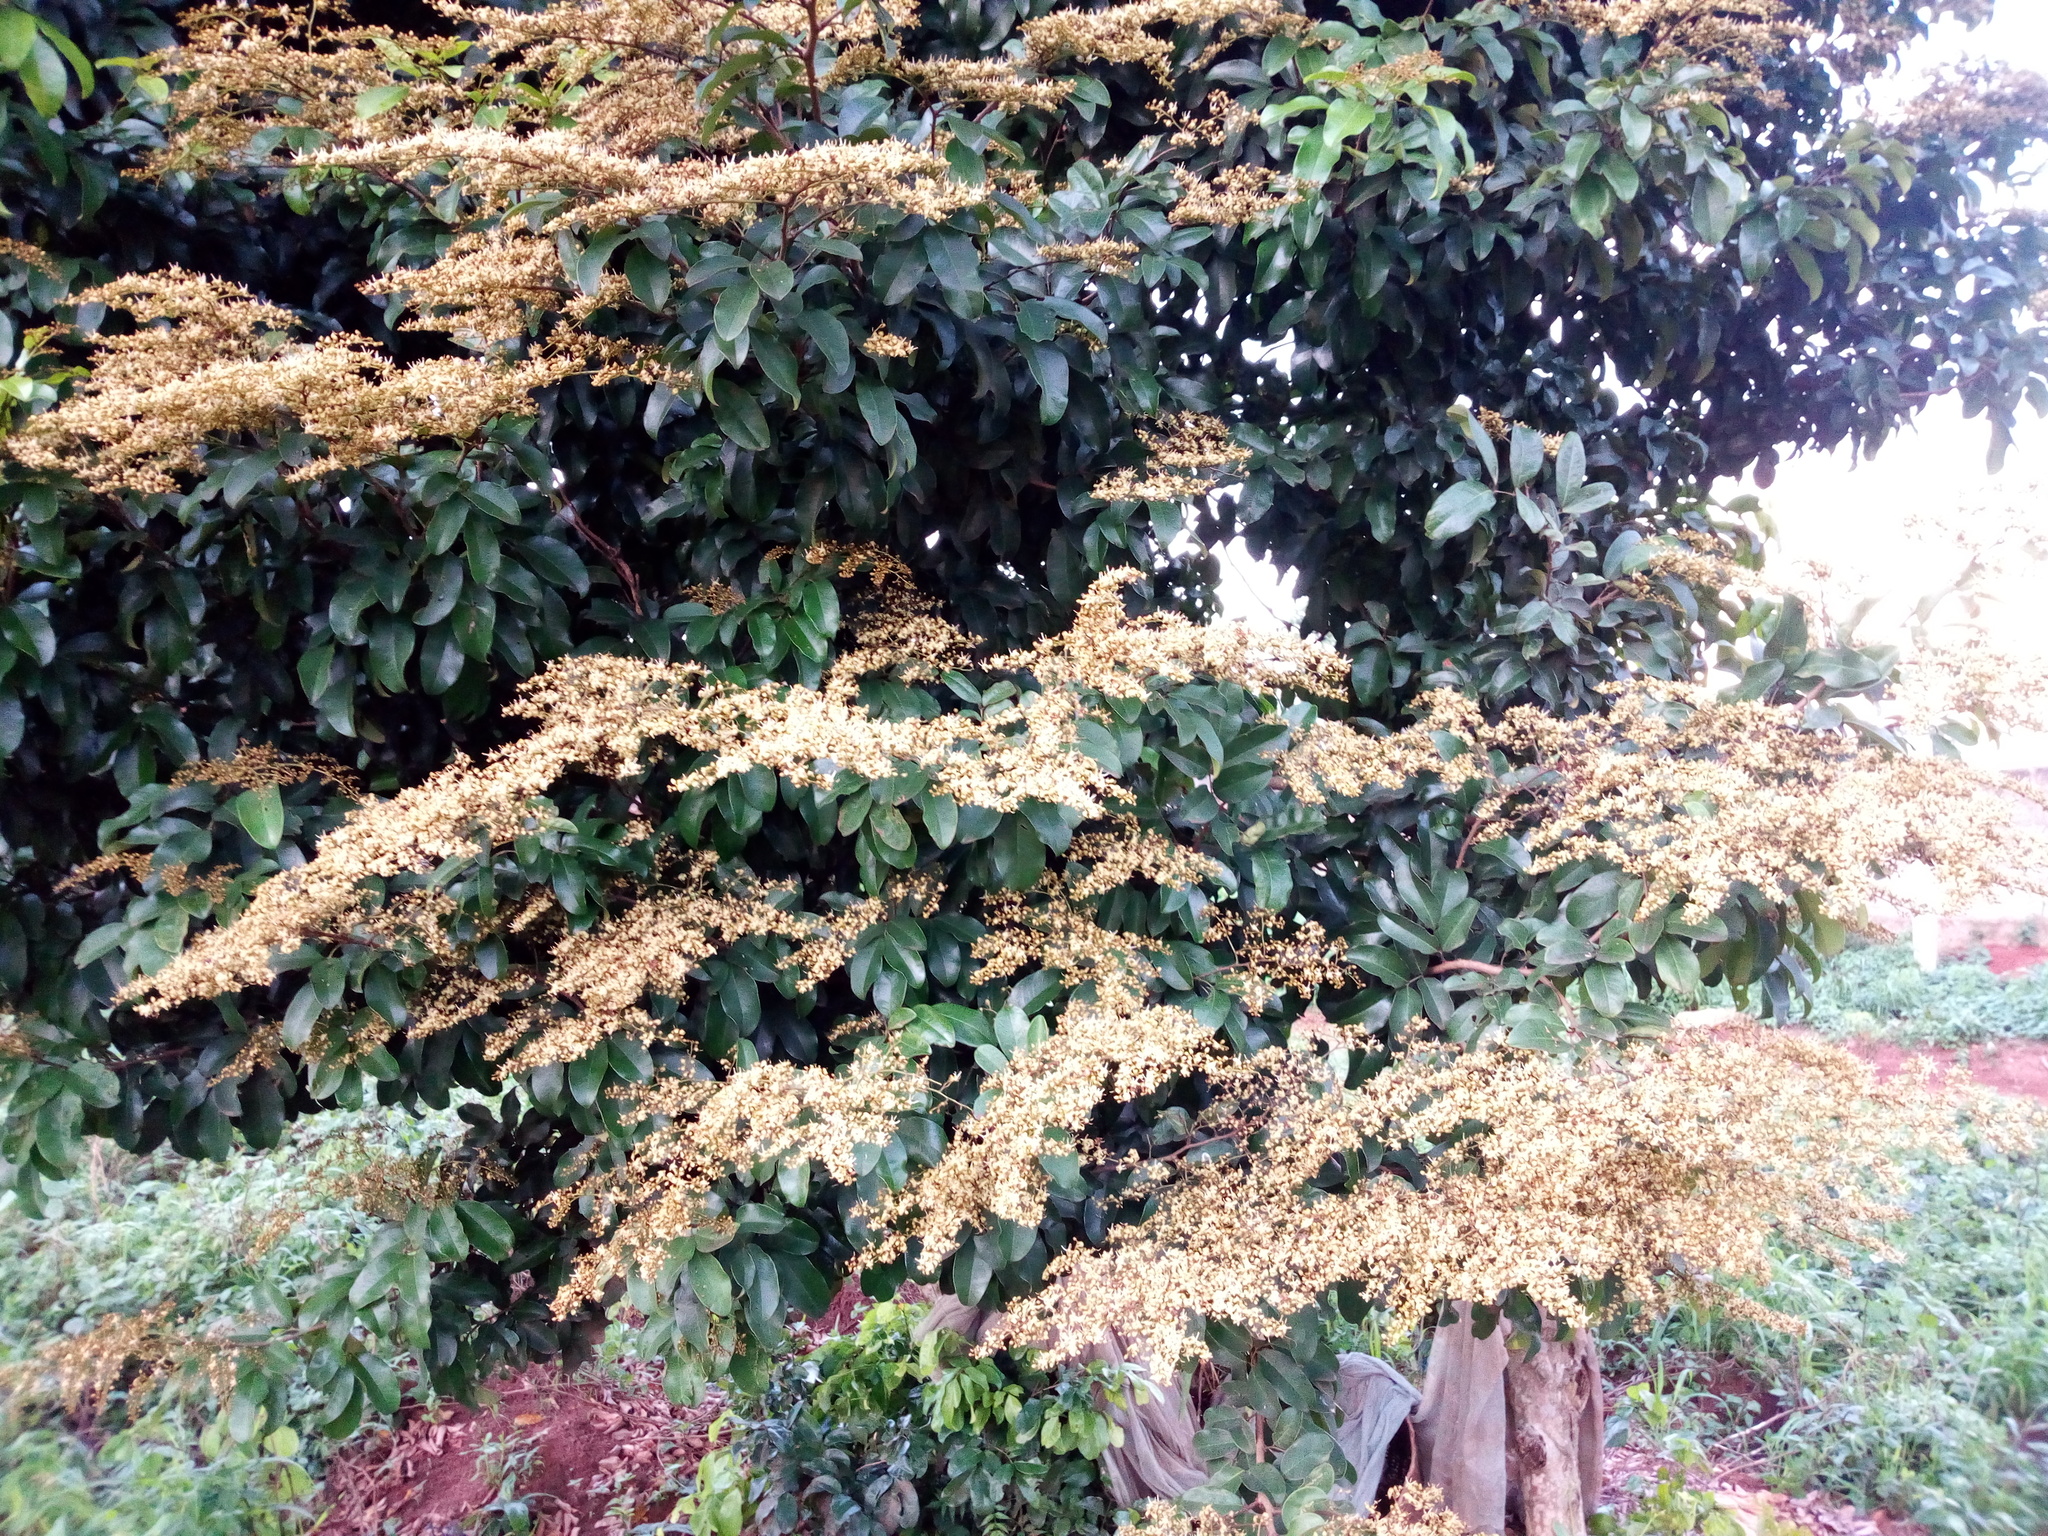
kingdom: Plantae
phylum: Tracheophyta
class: Magnoliopsida
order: Fabales
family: Fabaceae
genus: Dialium
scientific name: Dialium guineense
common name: Sierra leone-tamarind
